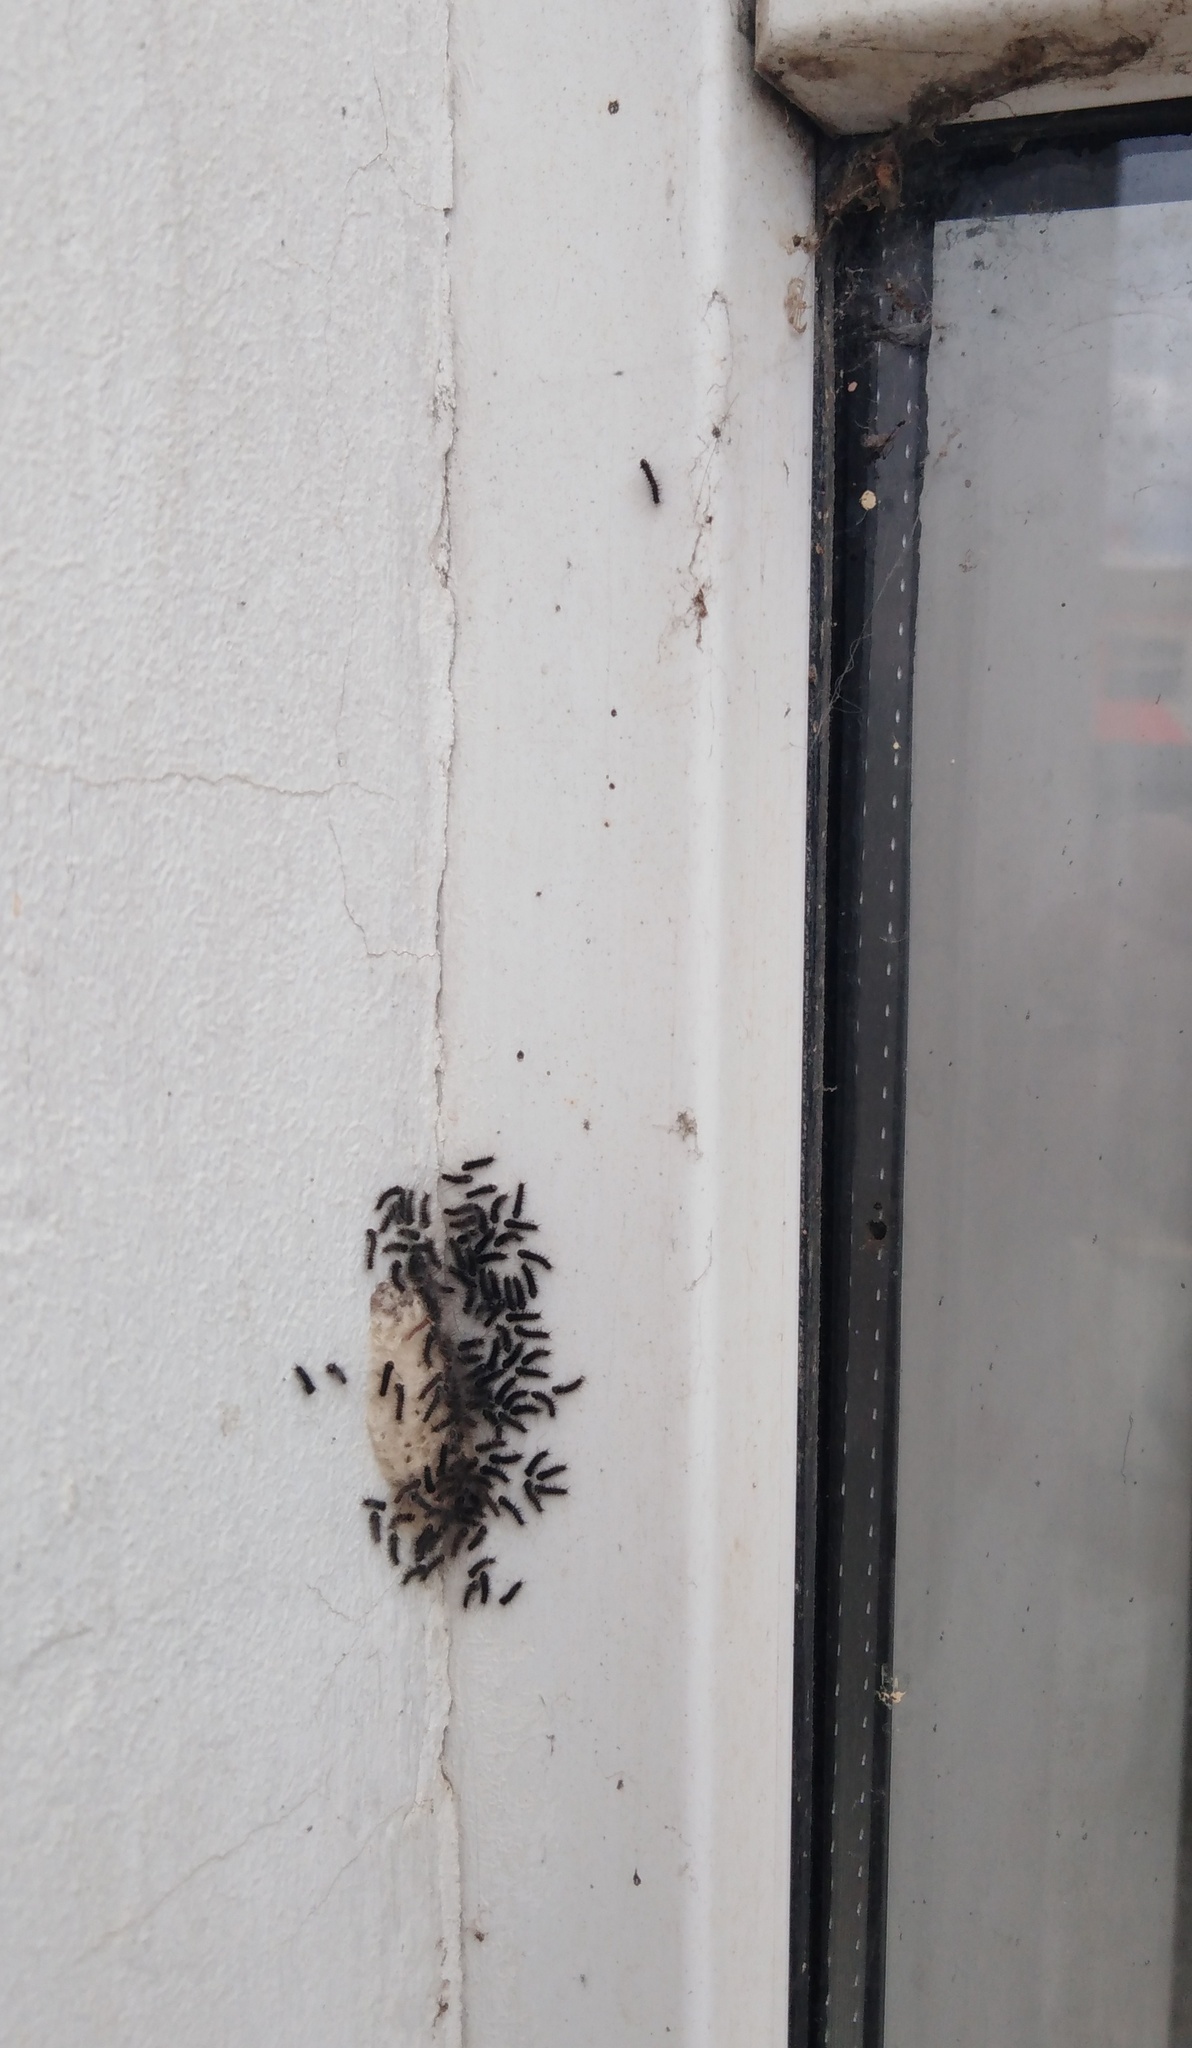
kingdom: Animalia
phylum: Arthropoda
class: Insecta
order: Lepidoptera
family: Erebidae
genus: Lymantria
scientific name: Lymantria dispar
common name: Gypsy moth
